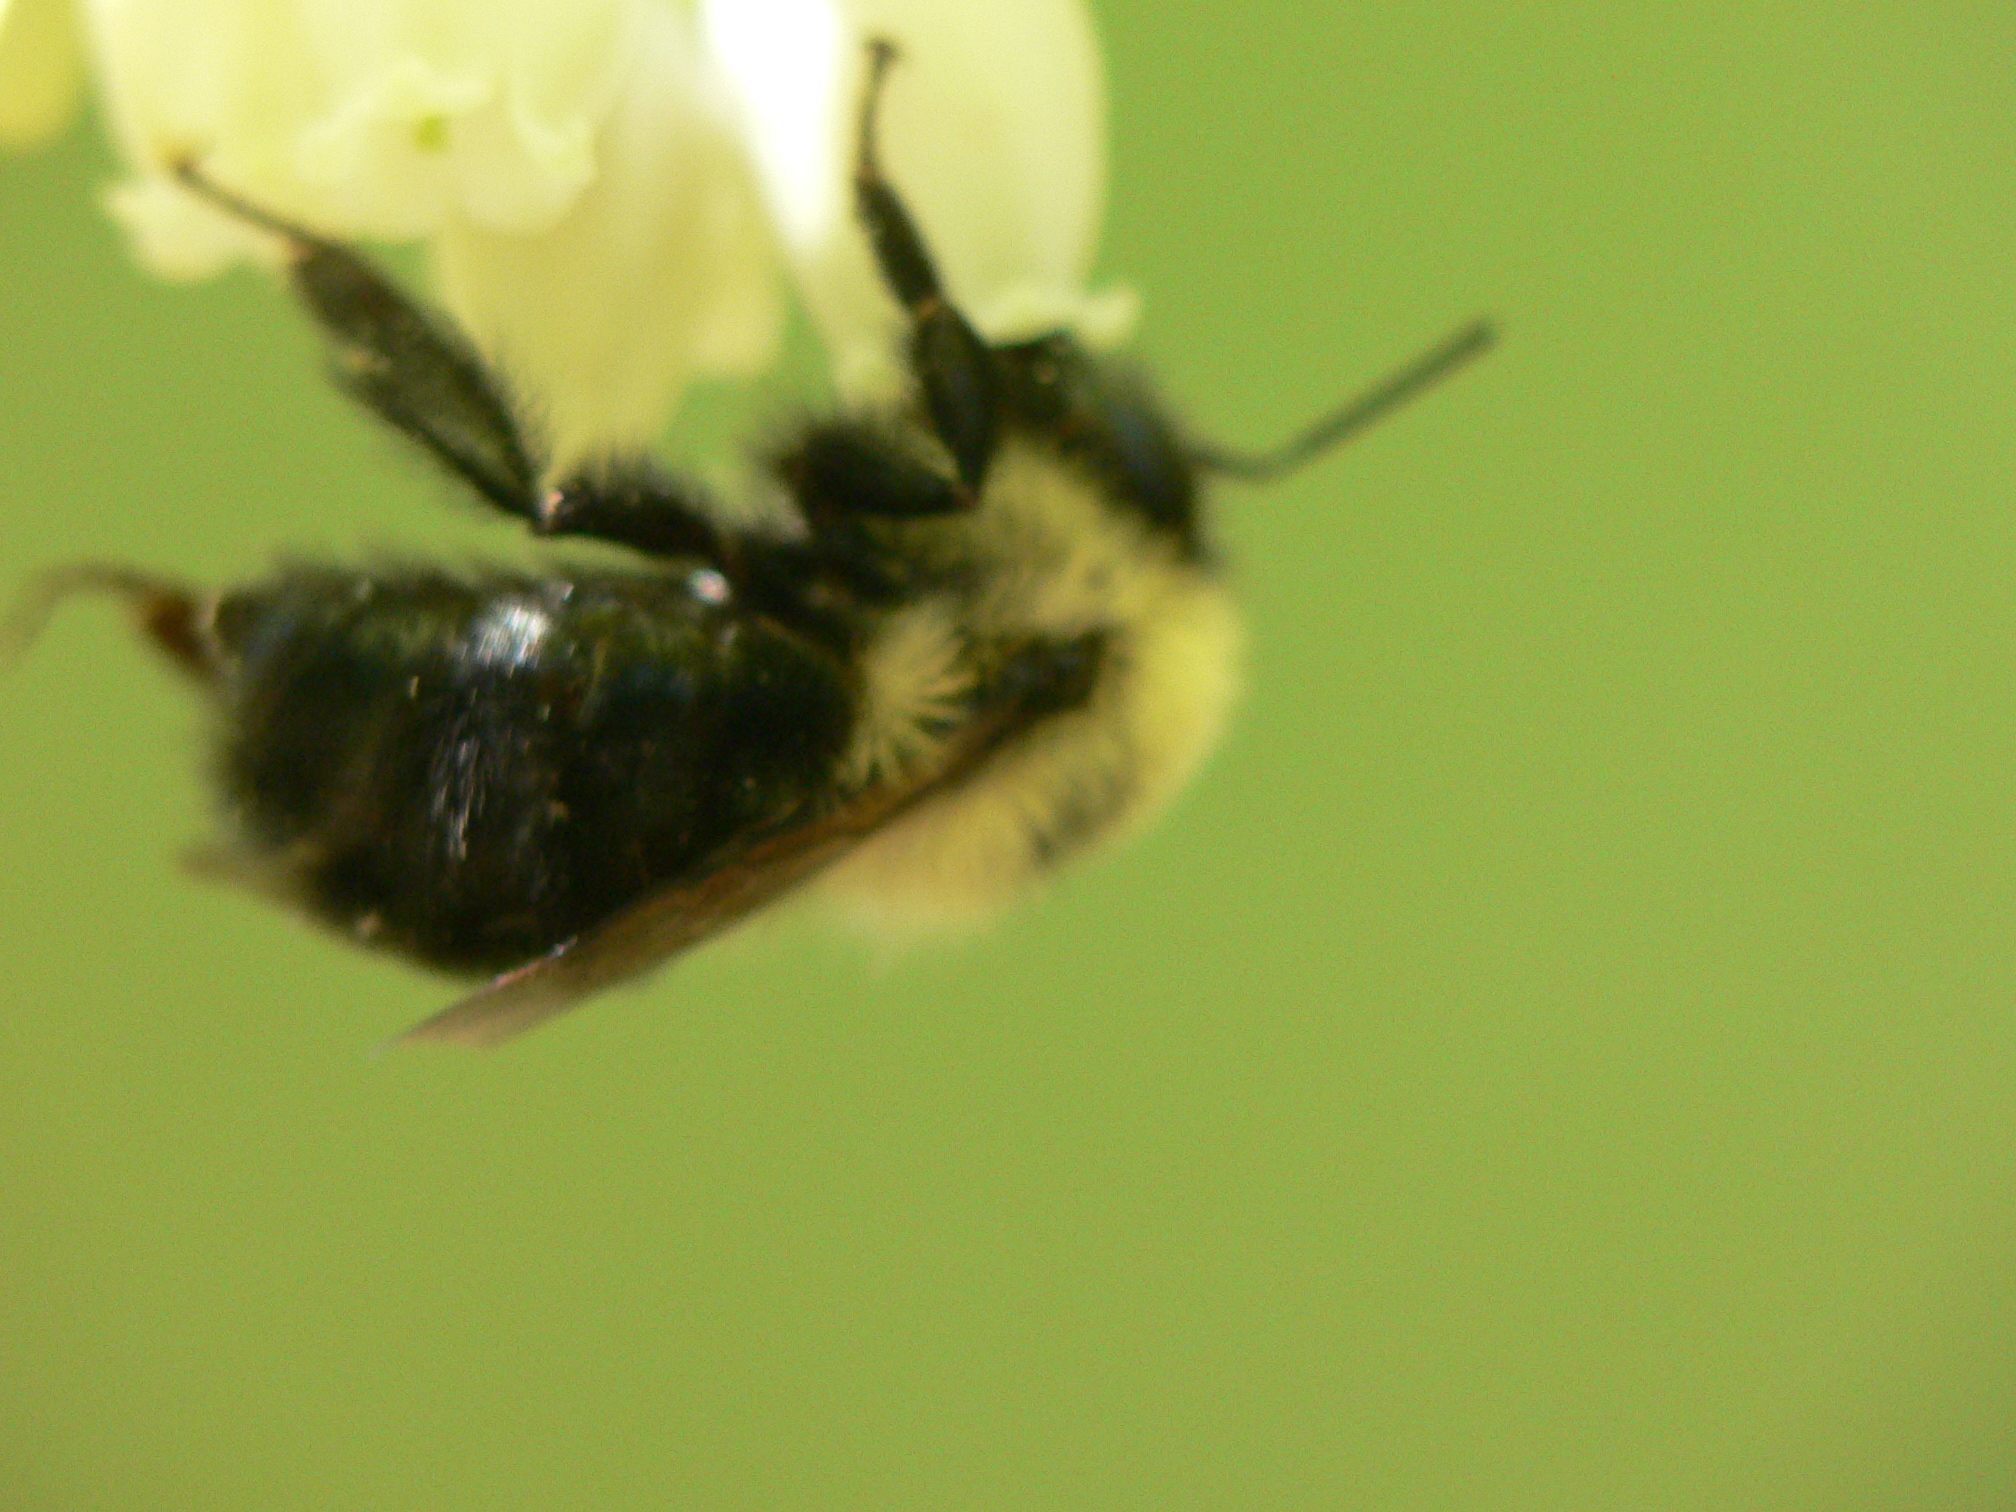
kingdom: Animalia
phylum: Arthropoda
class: Insecta
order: Hymenoptera
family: Apidae
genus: Bombus
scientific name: Bombus bimaculatus
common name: Two-spotted bumble bee
